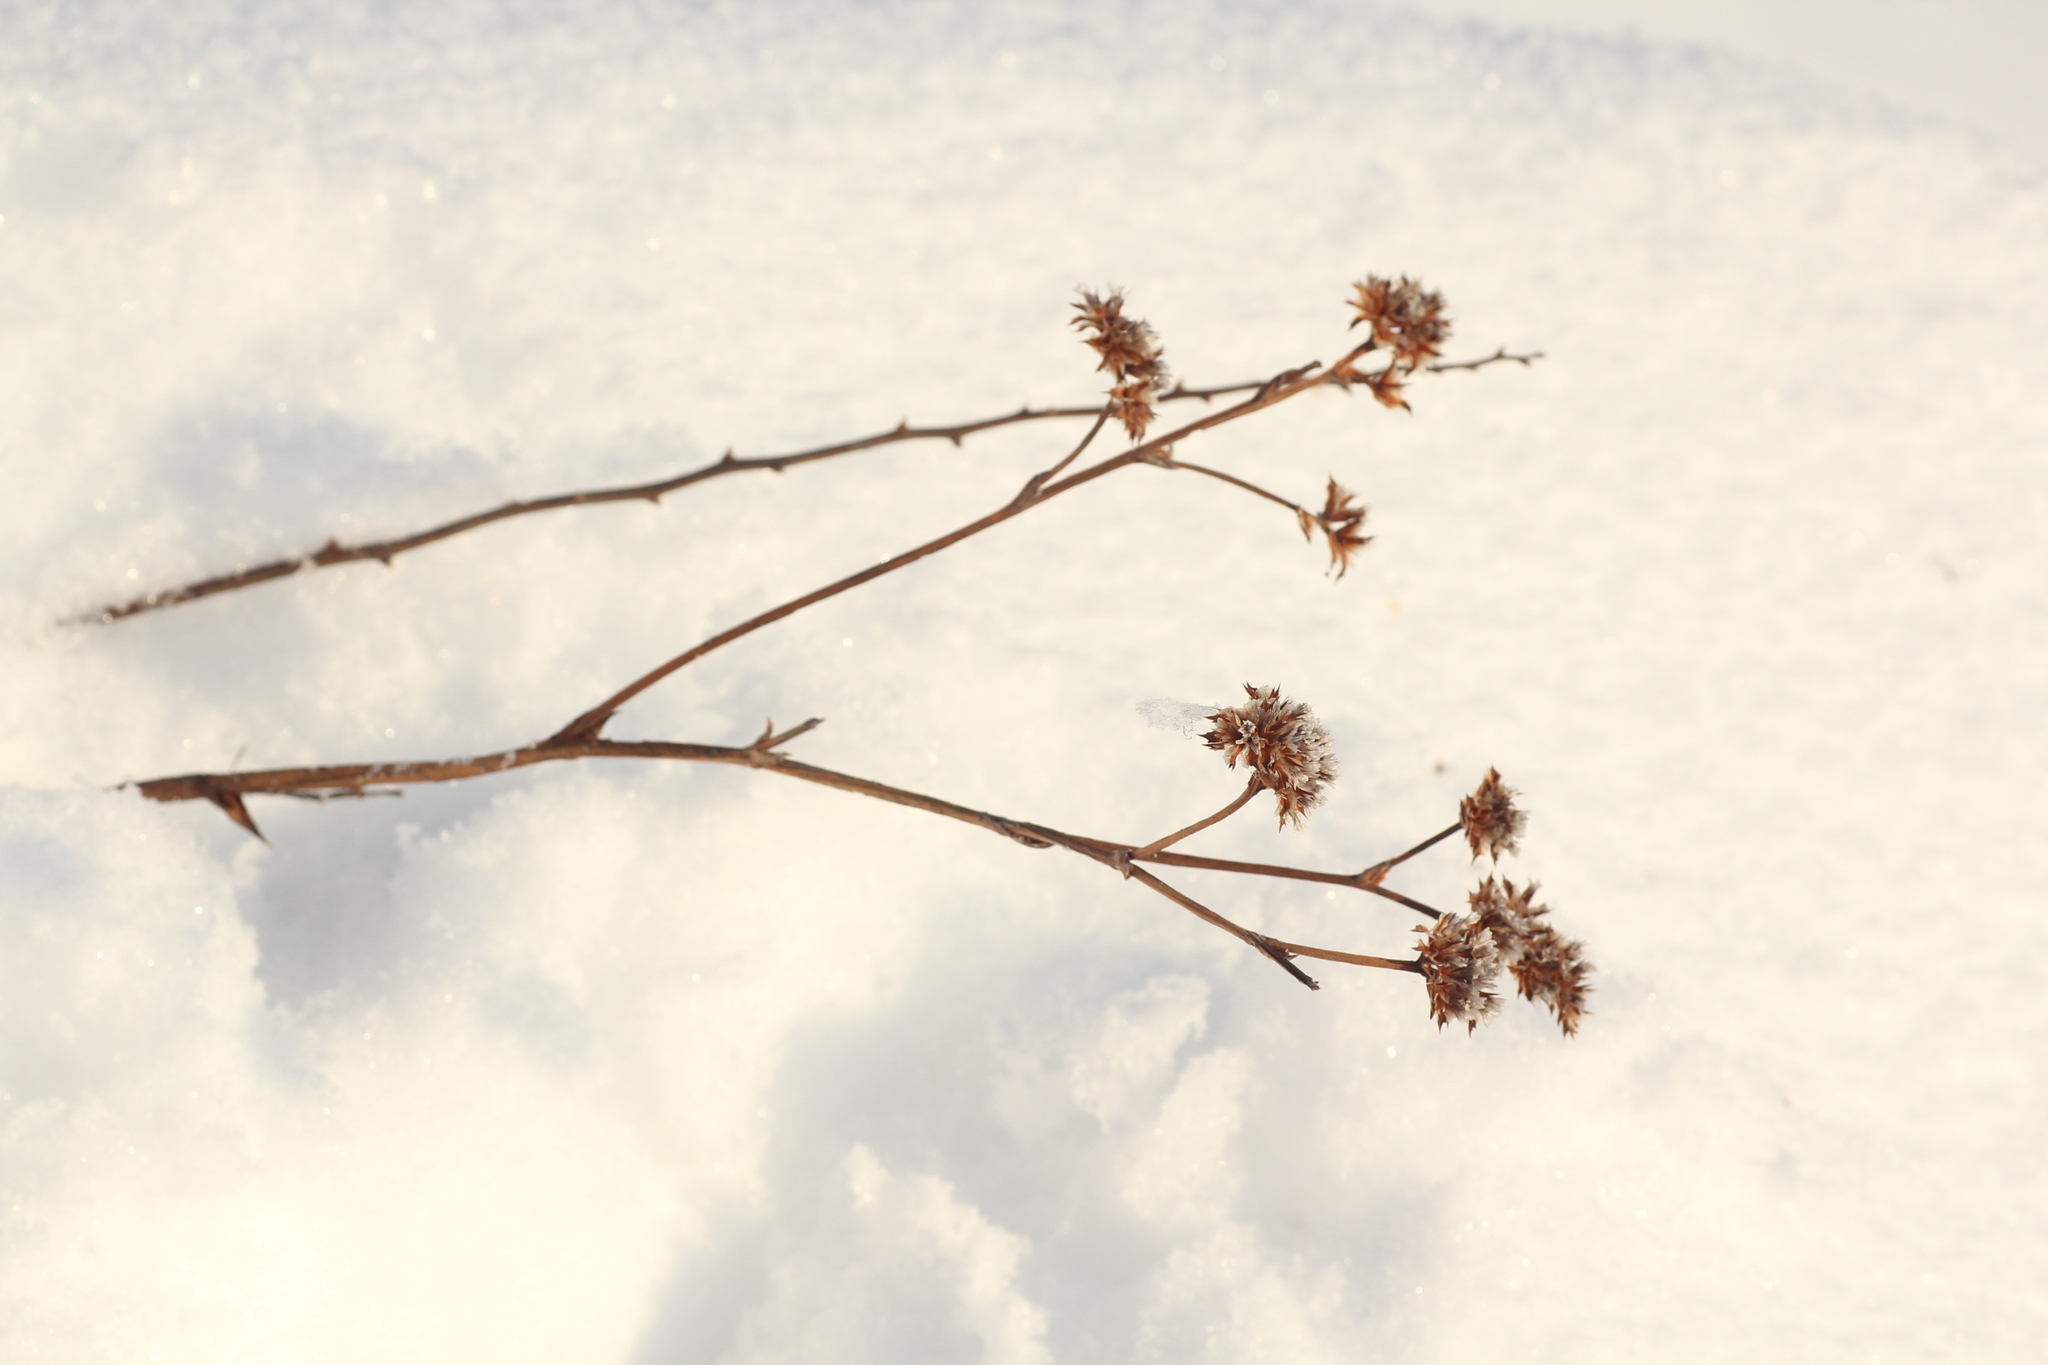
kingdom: Plantae
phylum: Tracheophyta
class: Magnoliopsida
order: Caryophyllales
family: Plumbaginaceae
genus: Goniolimon
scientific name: Goniolimon speciosum
